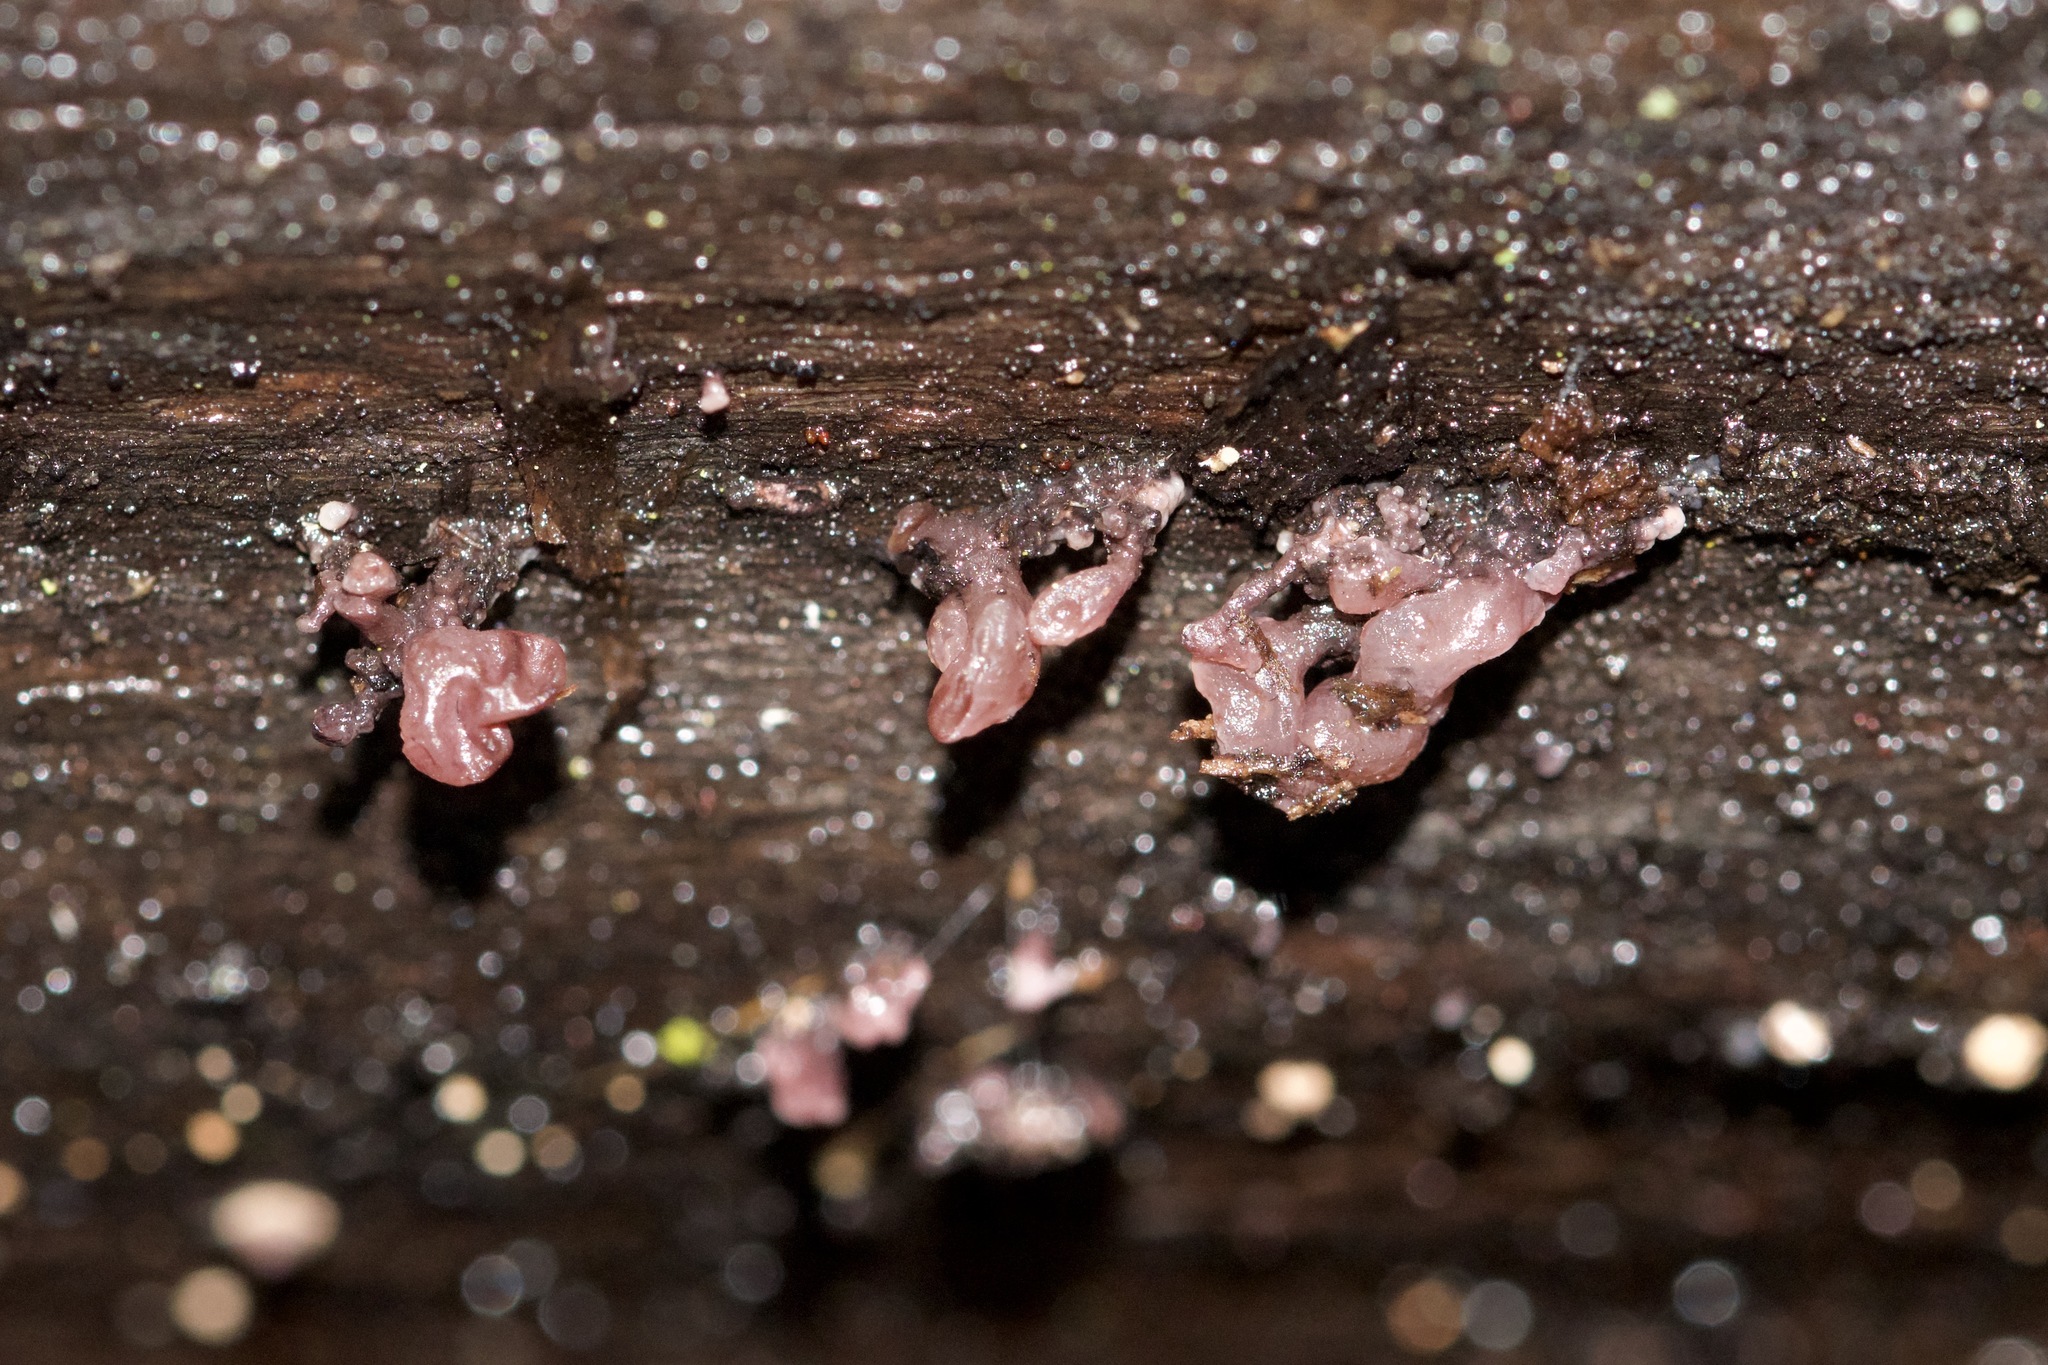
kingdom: Fungi
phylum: Ascomycota
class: Leotiomycetes
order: Helotiales
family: Gelatinodiscaceae
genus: Ascocoryne
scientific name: Ascocoryne sarcoides
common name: Purple jellydisc
